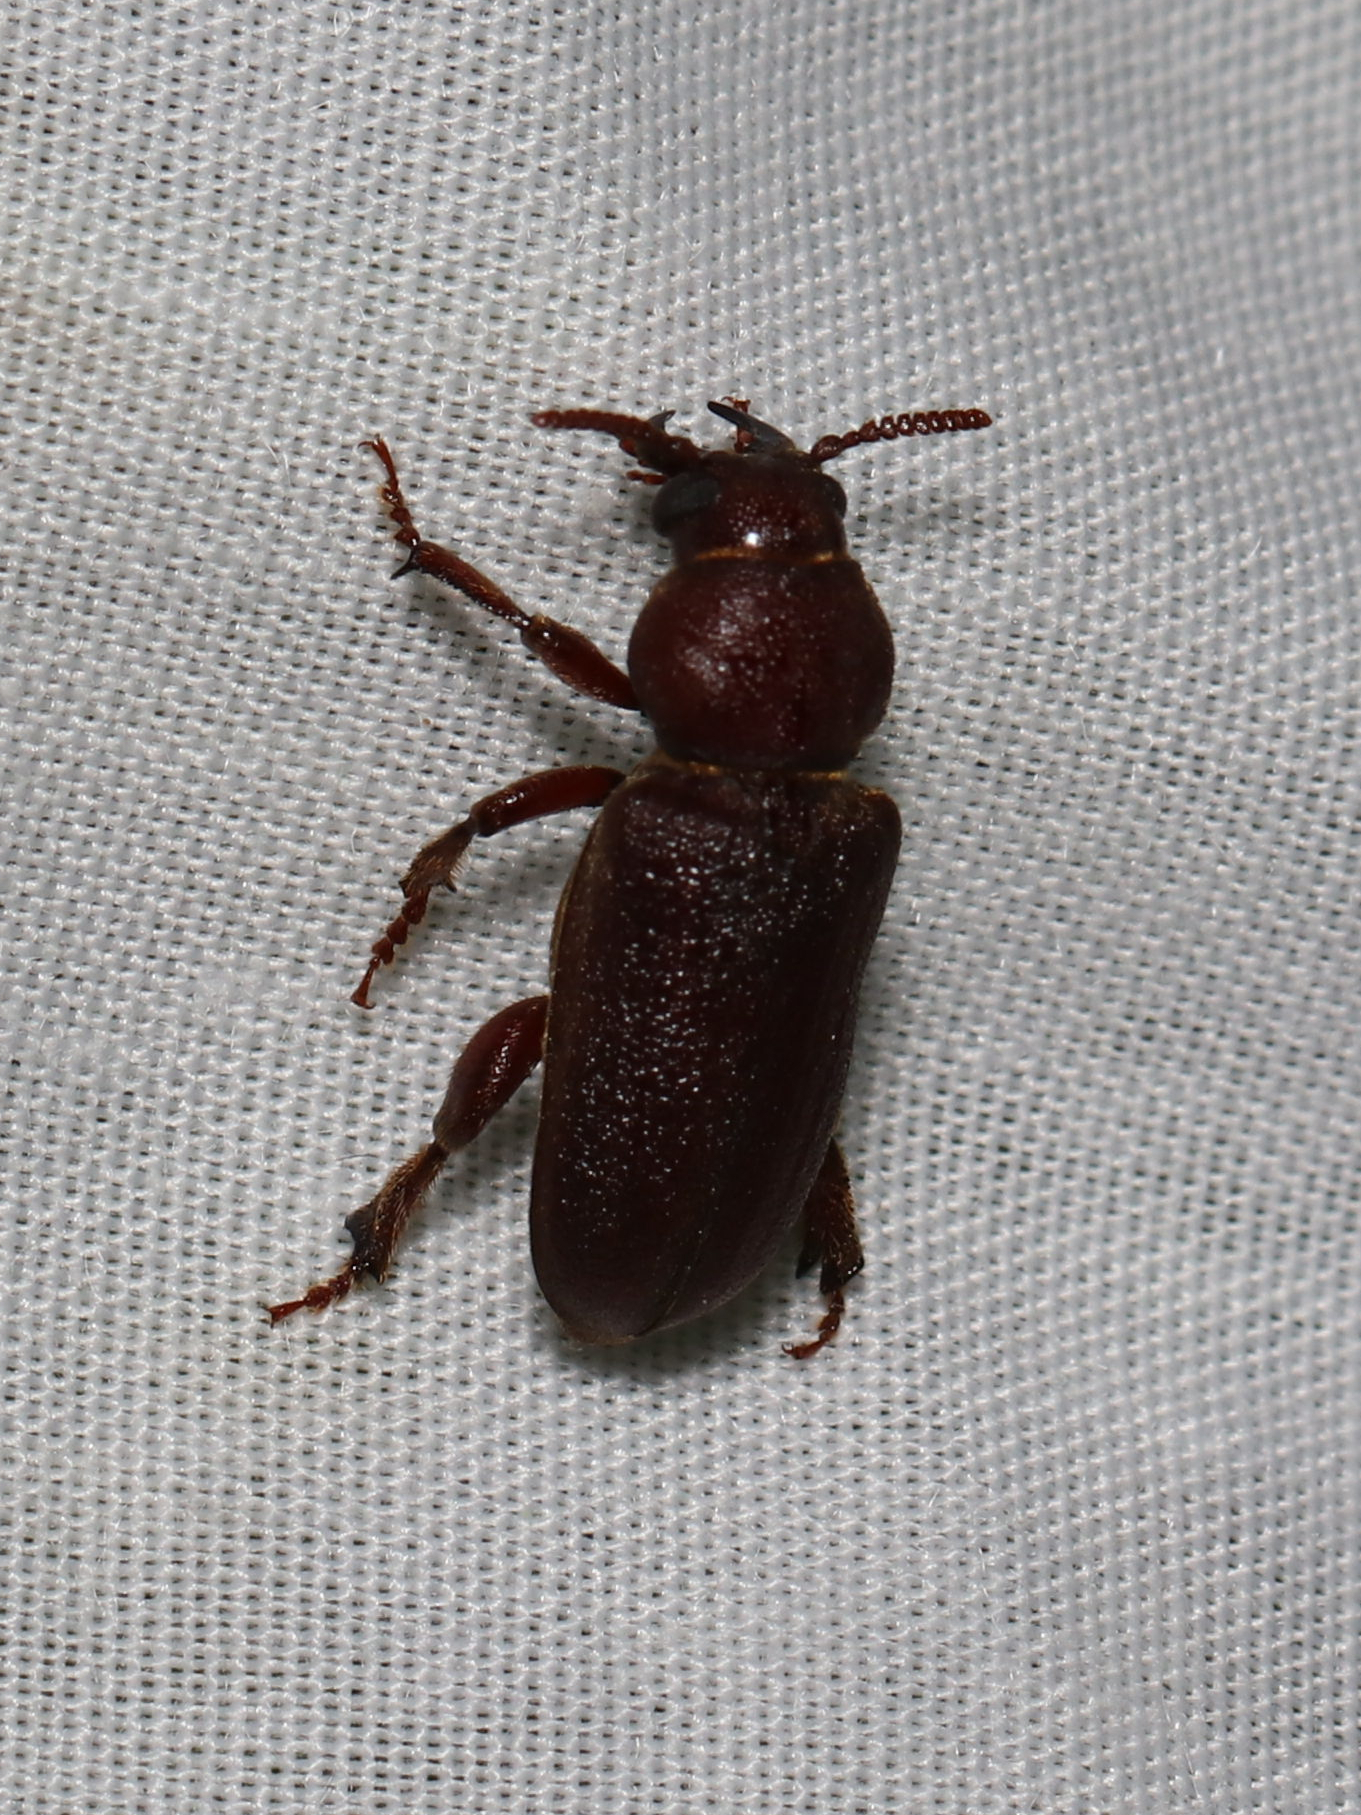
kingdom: Animalia
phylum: Arthropoda
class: Insecta
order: Coleoptera
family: Cerambycidae
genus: Scaphinus
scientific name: Scaphinus muticus
